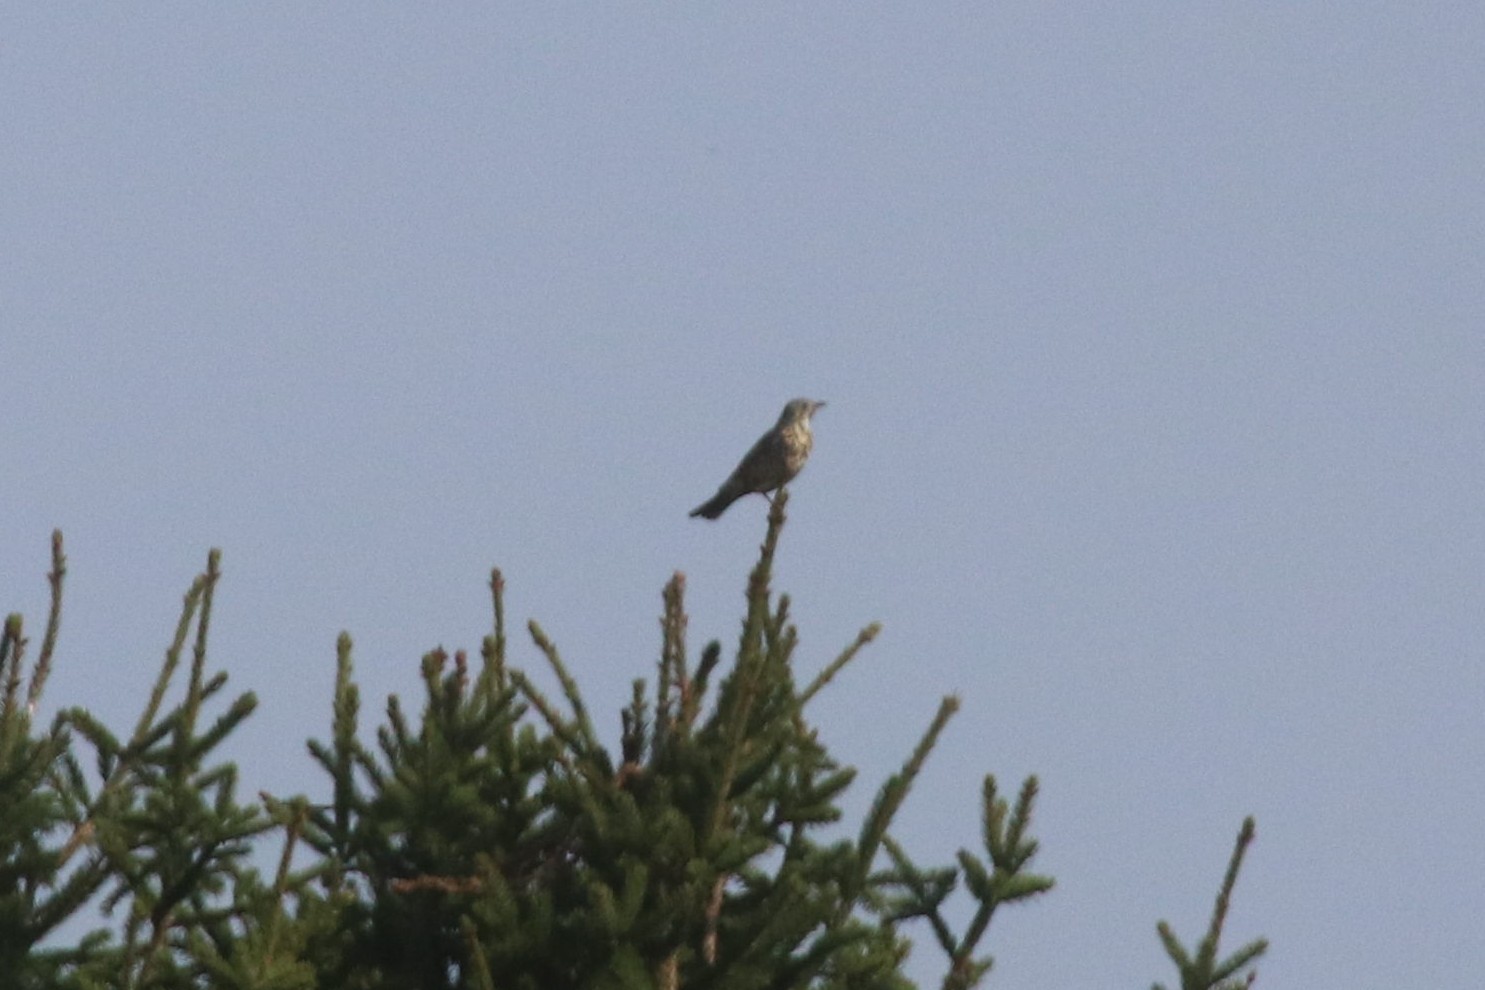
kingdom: Animalia
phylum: Chordata
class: Aves
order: Passeriformes
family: Turdidae
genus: Turdus
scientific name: Turdus viscivorus
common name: Mistle thrush
